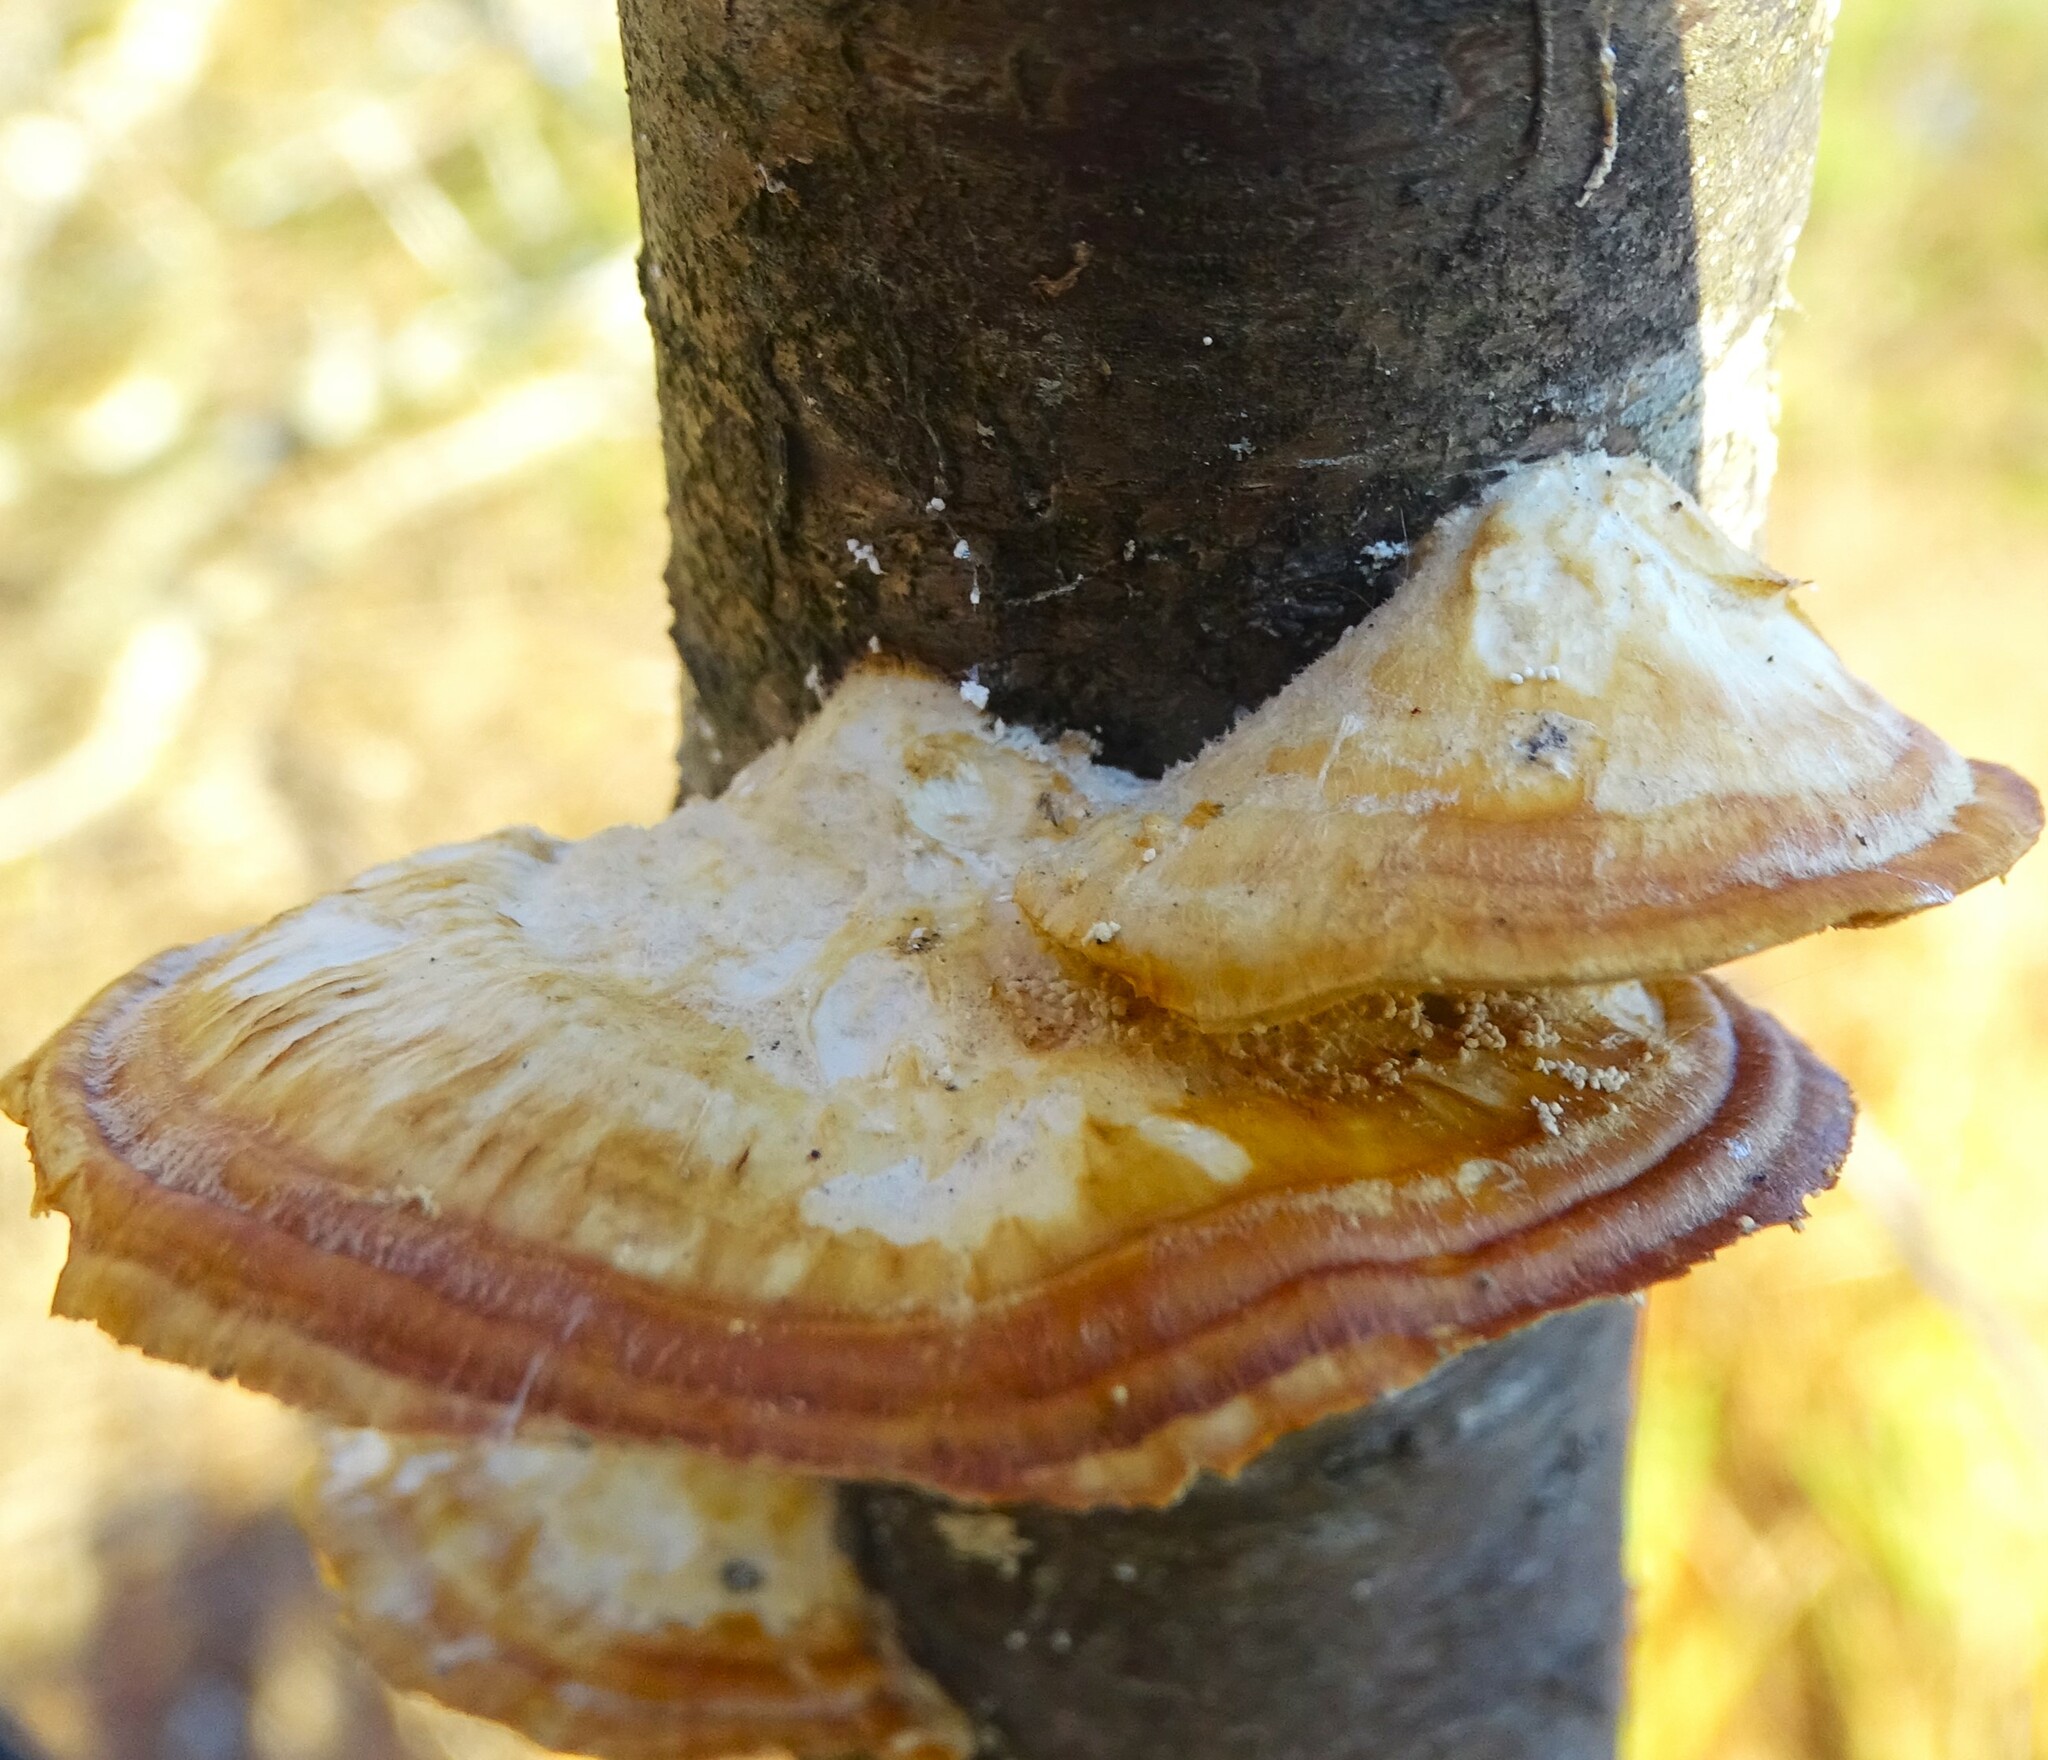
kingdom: Fungi
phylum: Basidiomycota
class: Agaricomycetes
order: Polyporales
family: Polyporaceae
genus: Trametes
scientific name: Trametes ochracea
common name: Ochre bracket
